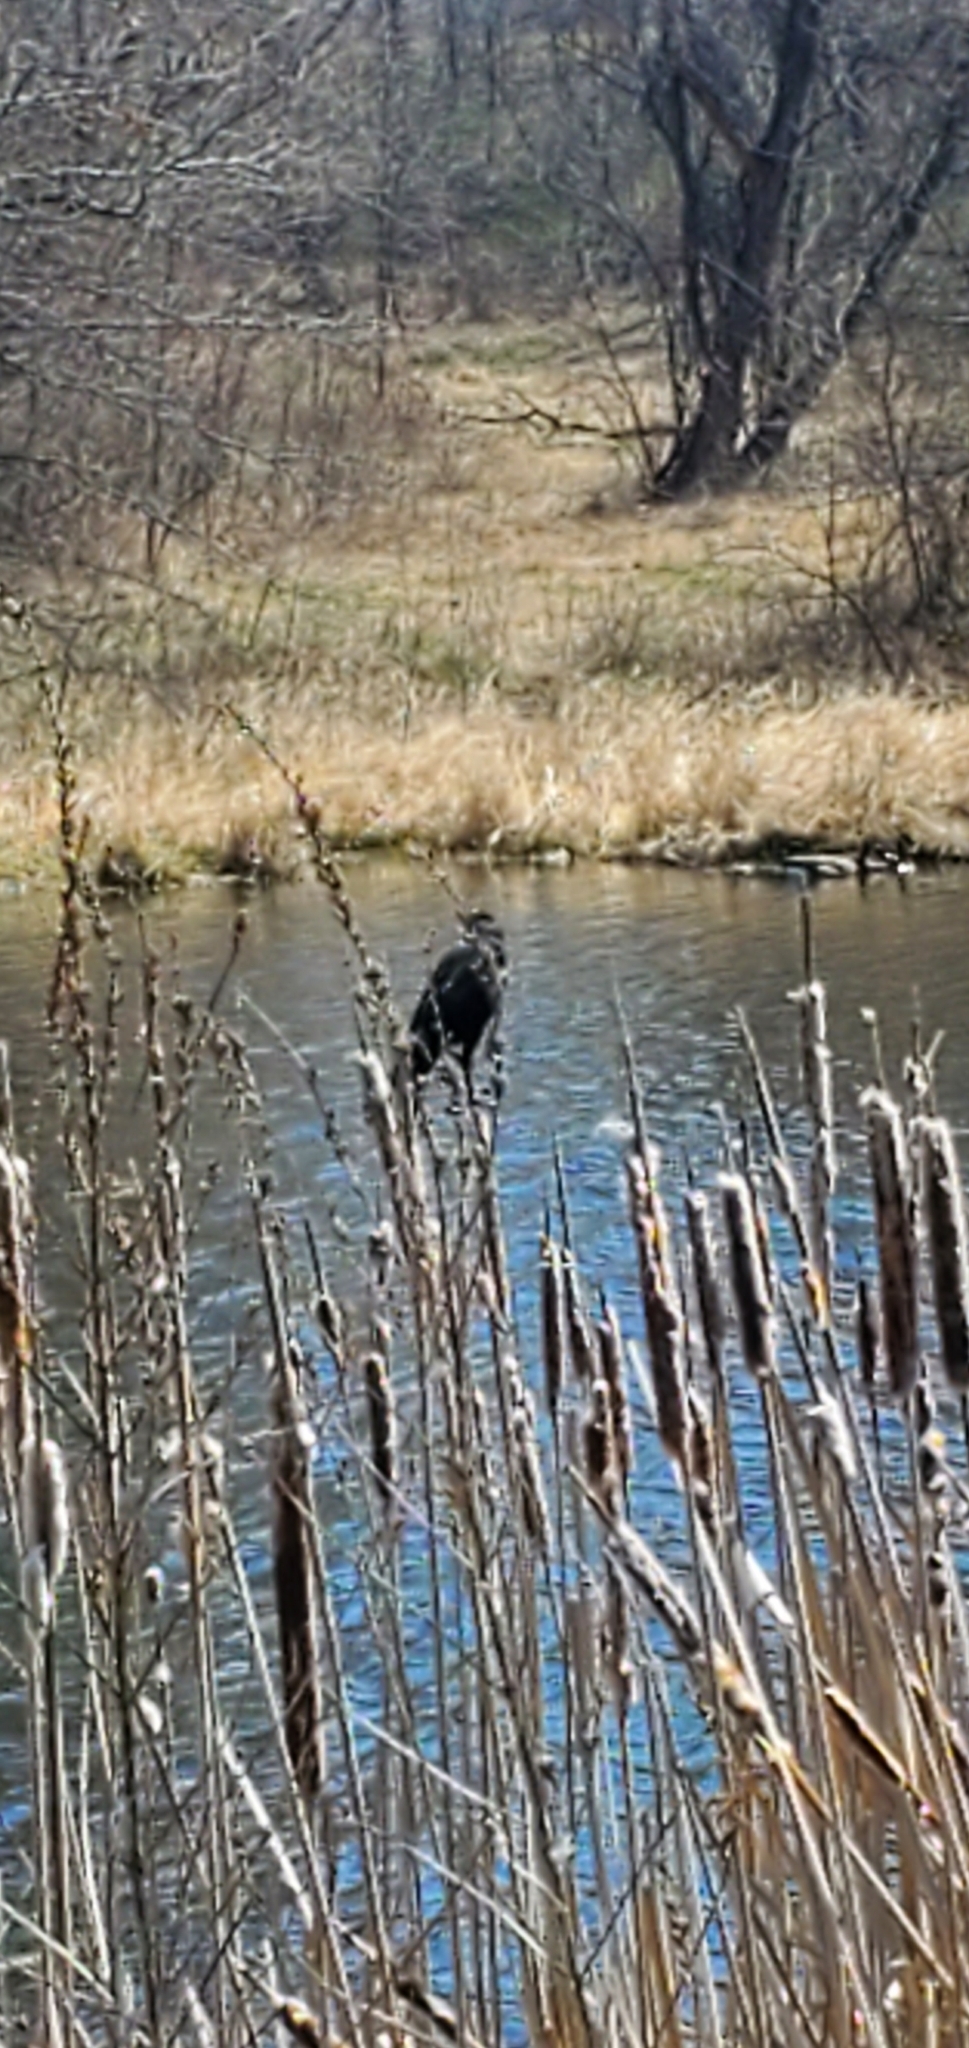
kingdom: Animalia
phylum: Chordata
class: Aves
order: Passeriformes
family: Icteridae
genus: Agelaius
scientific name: Agelaius phoeniceus
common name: Red-winged blackbird
